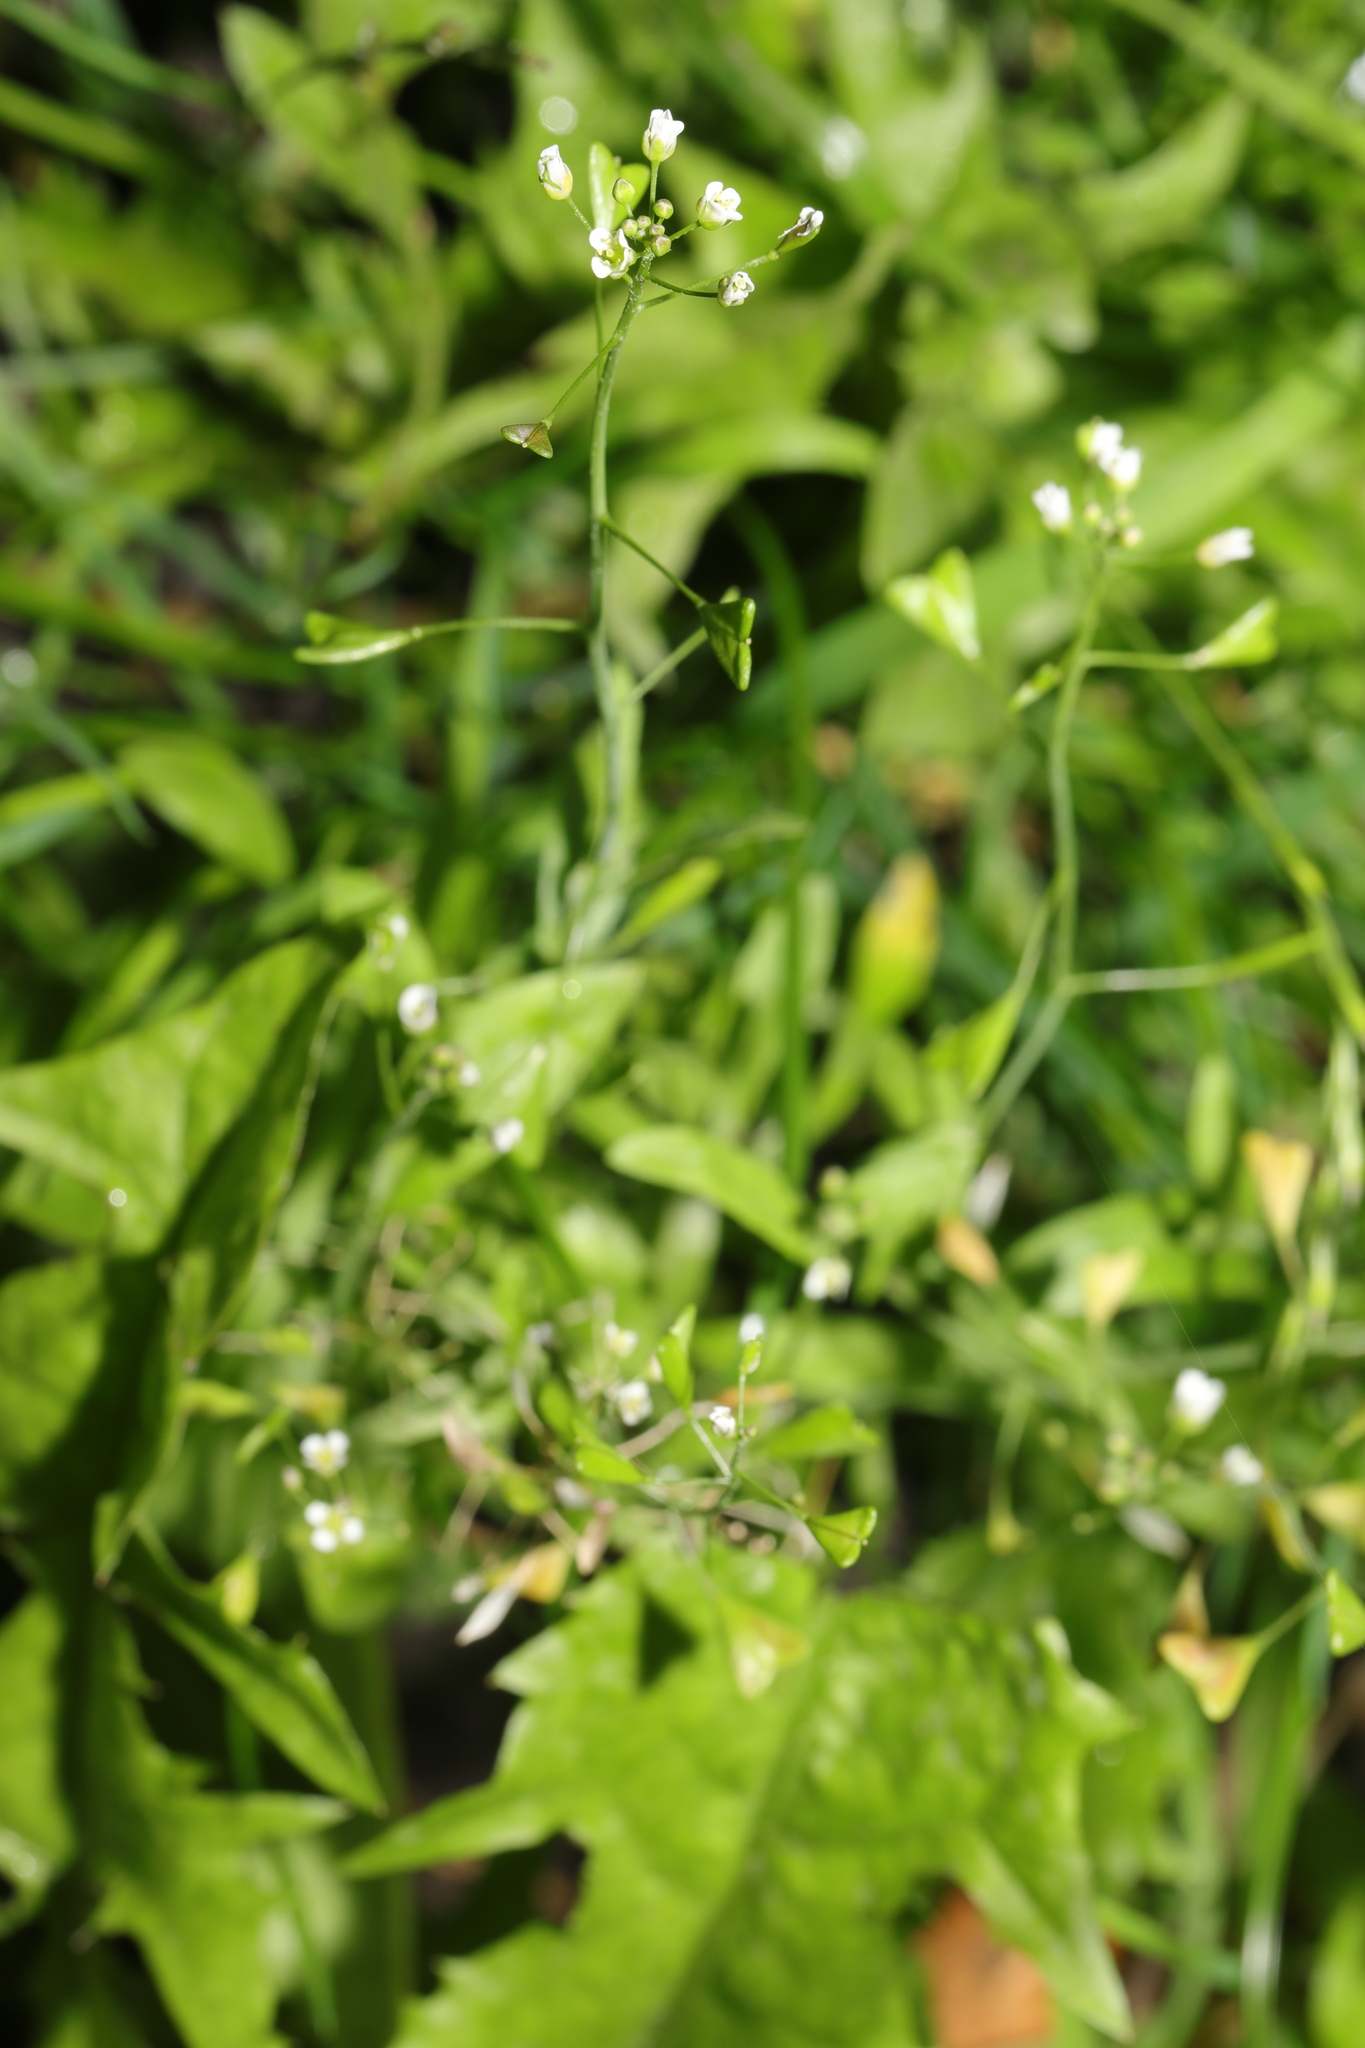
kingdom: Plantae
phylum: Tracheophyta
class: Magnoliopsida
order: Brassicales
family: Brassicaceae
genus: Capsella
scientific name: Capsella bursa-pastoris
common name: Shepherd's purse
